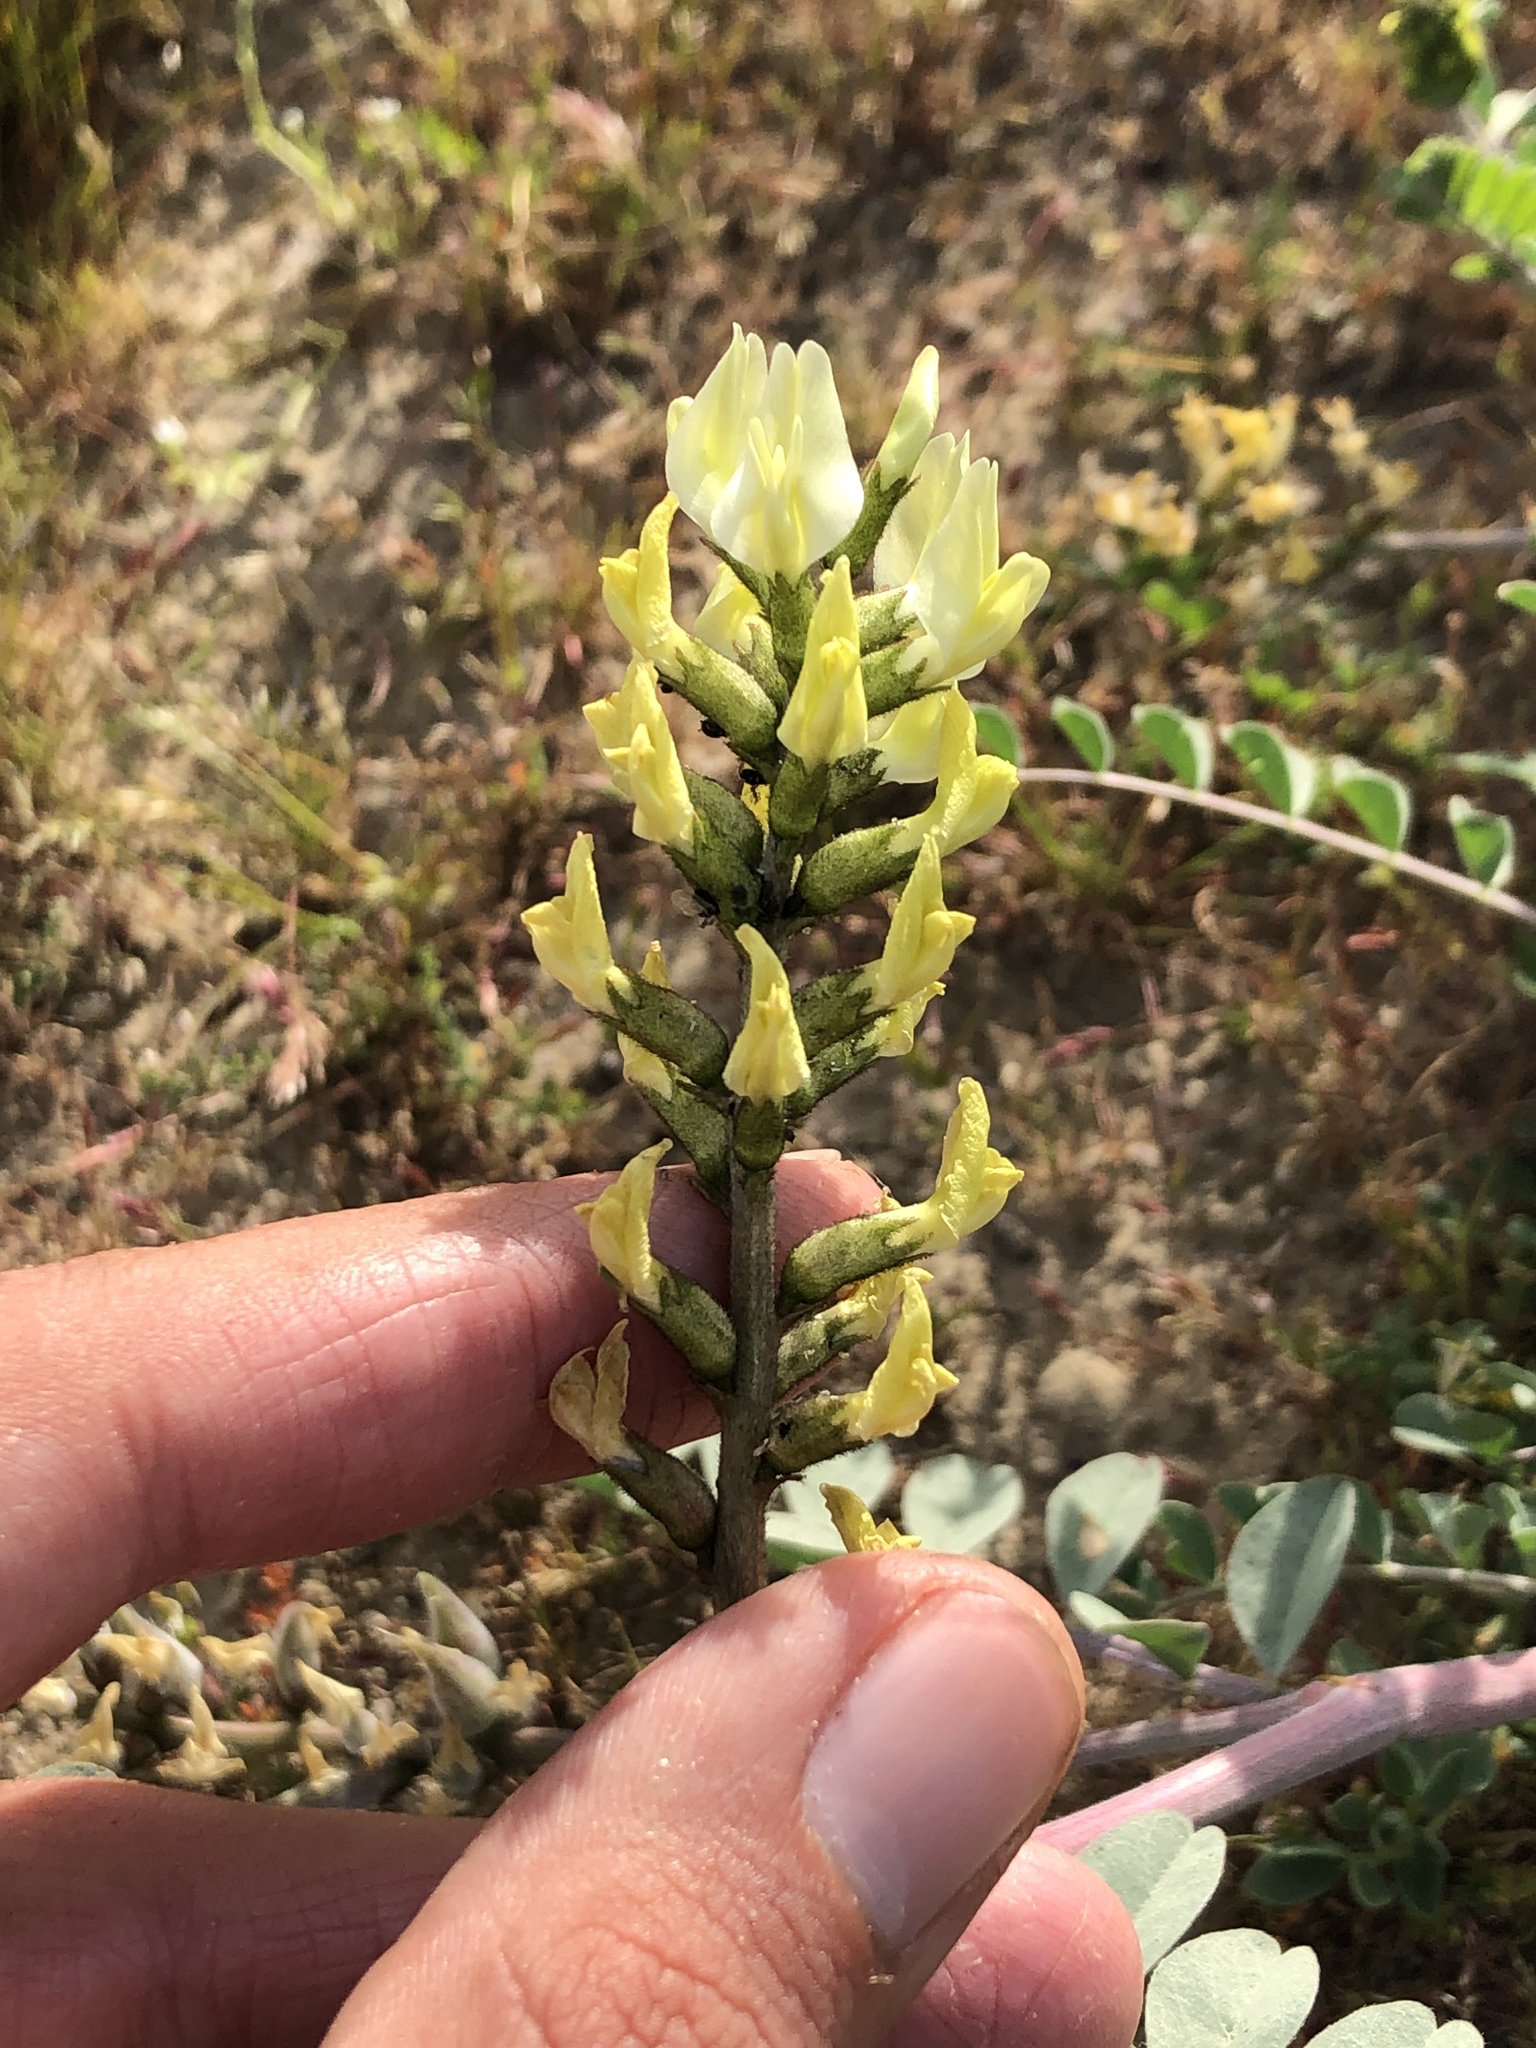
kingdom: Plantae
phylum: Tracheophyta
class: Magnoliopsida
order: Fabales
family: Fabaceae
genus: Astragalus
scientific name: Astragalus lentiginosus
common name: Freckled milkvetch
